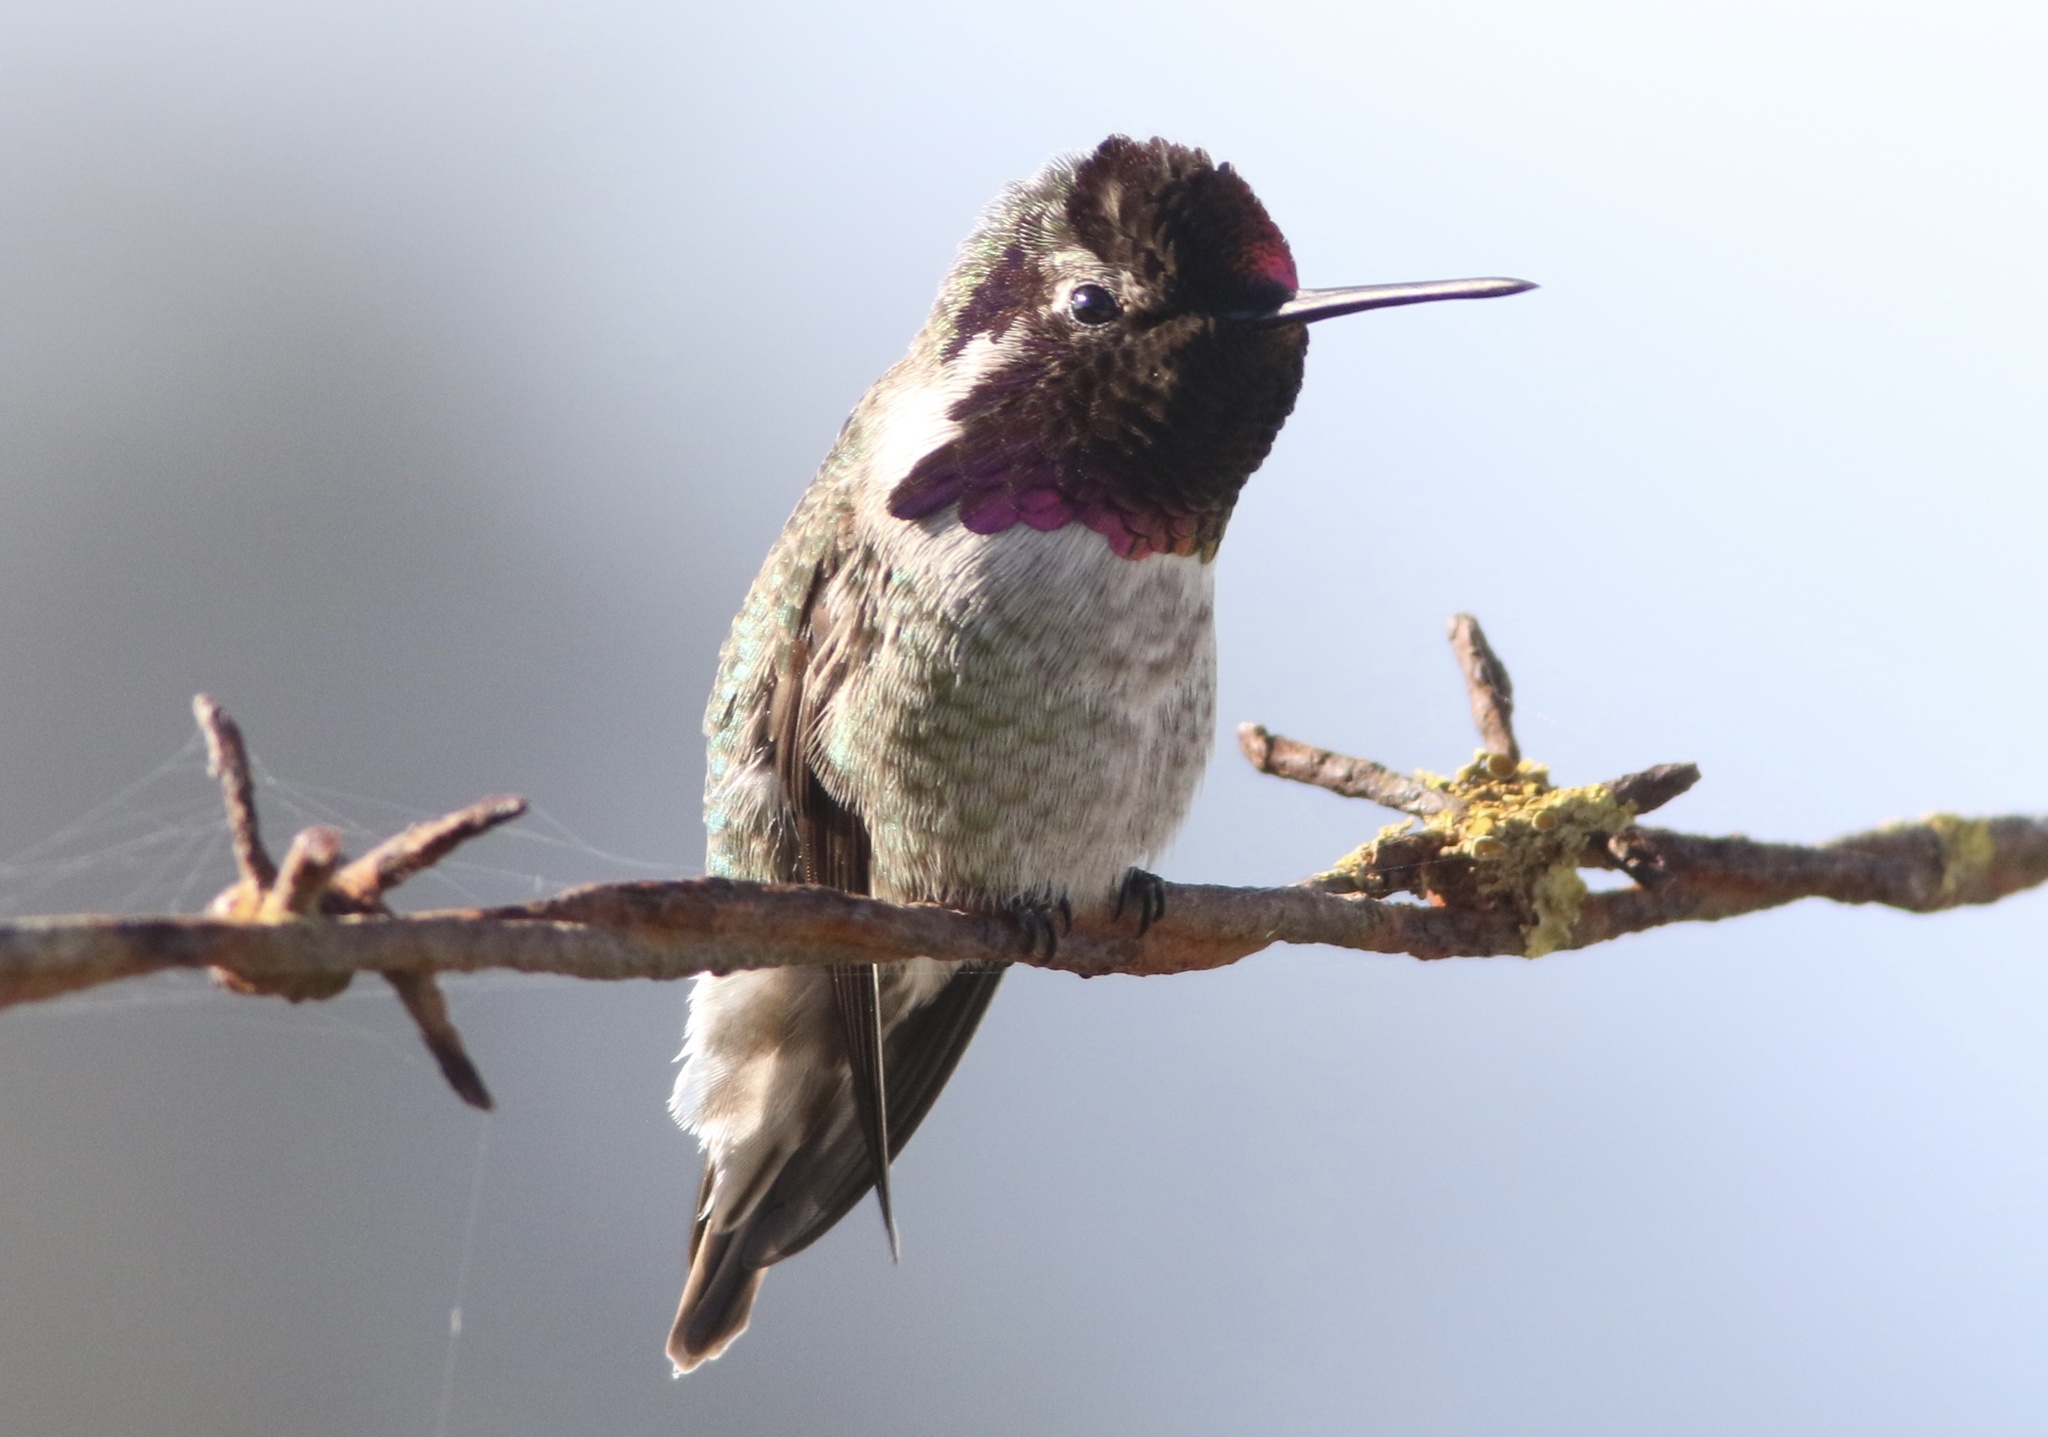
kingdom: Animalia
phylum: Chordata
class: Aves
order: Apodiformes
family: Trochilidae
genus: Calypte
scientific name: Calypte anna
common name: Anna's hummingbird
